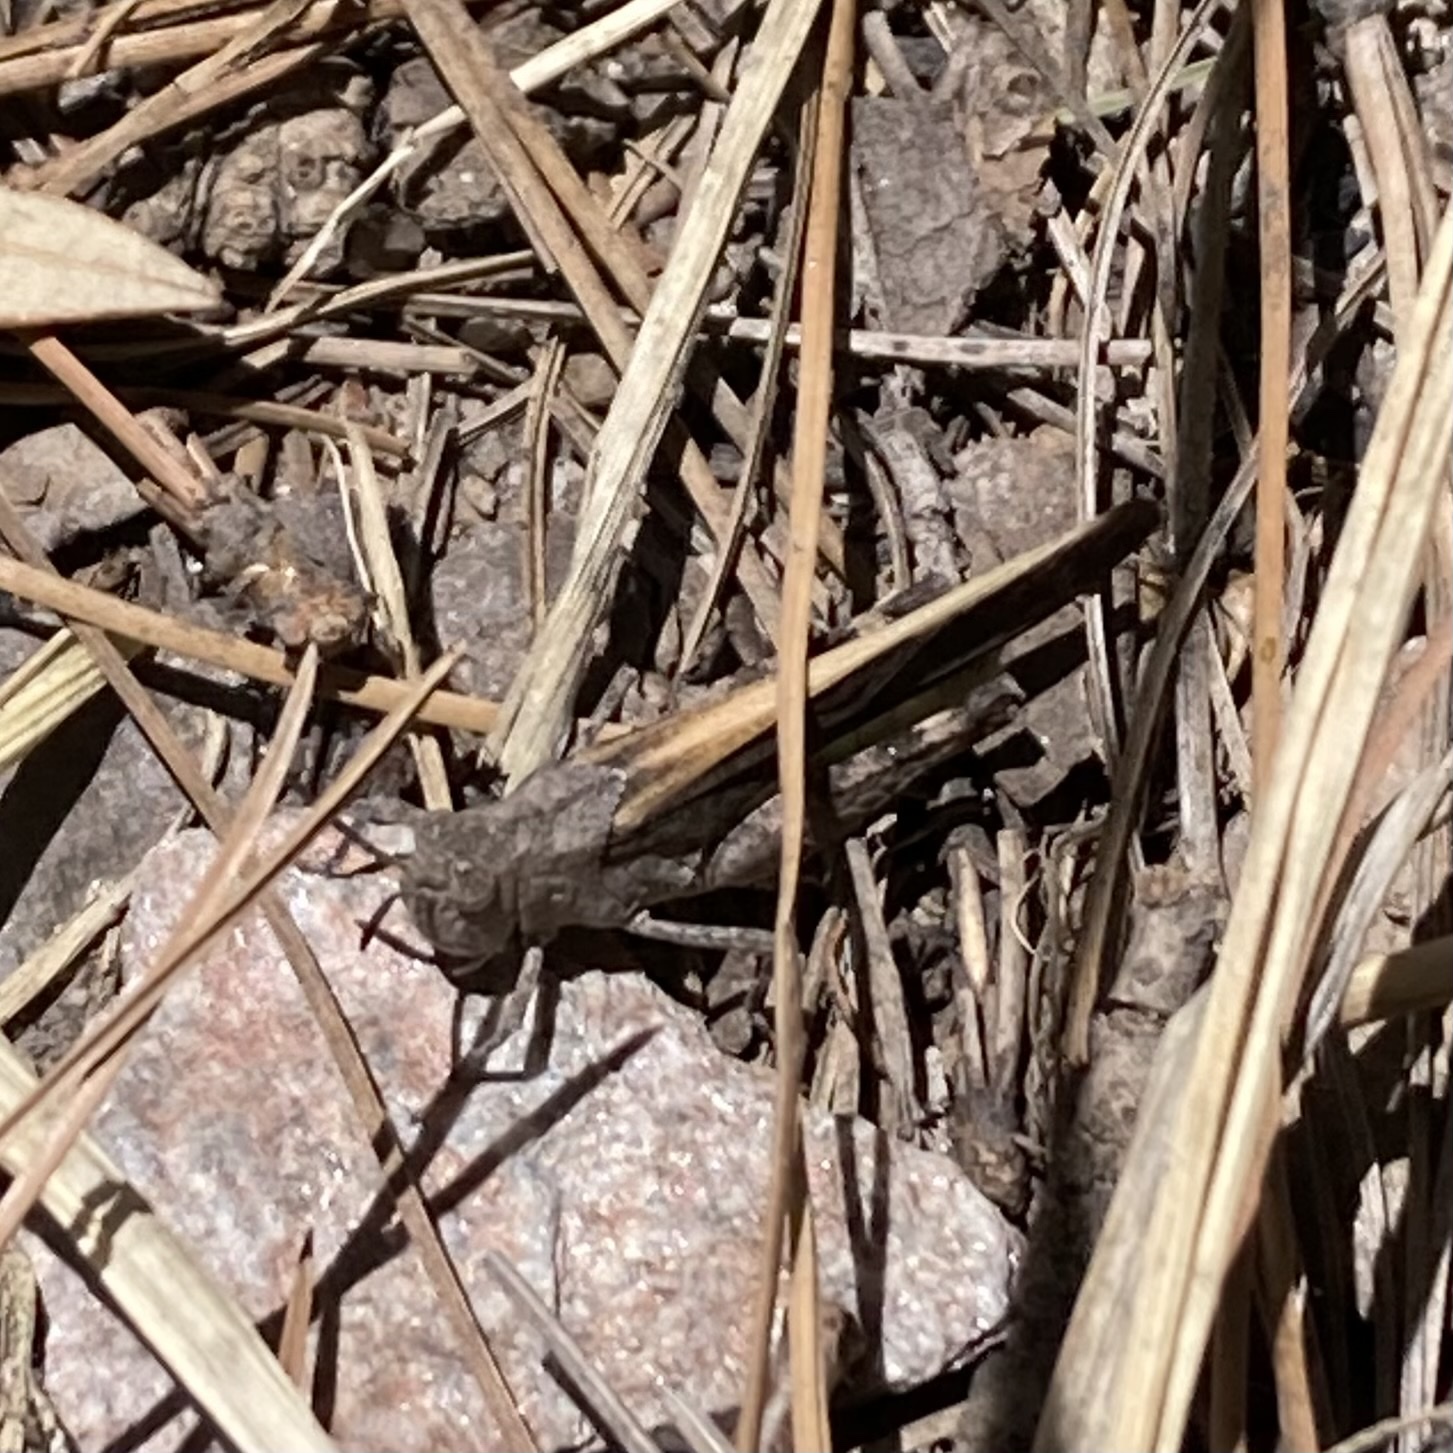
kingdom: Animalia
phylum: Arthropoda
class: Insecta
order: Orthoptera
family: Acrididae
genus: Arphia
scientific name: Arphia conspersa
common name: Speckle-winged rangeland grasshopper
